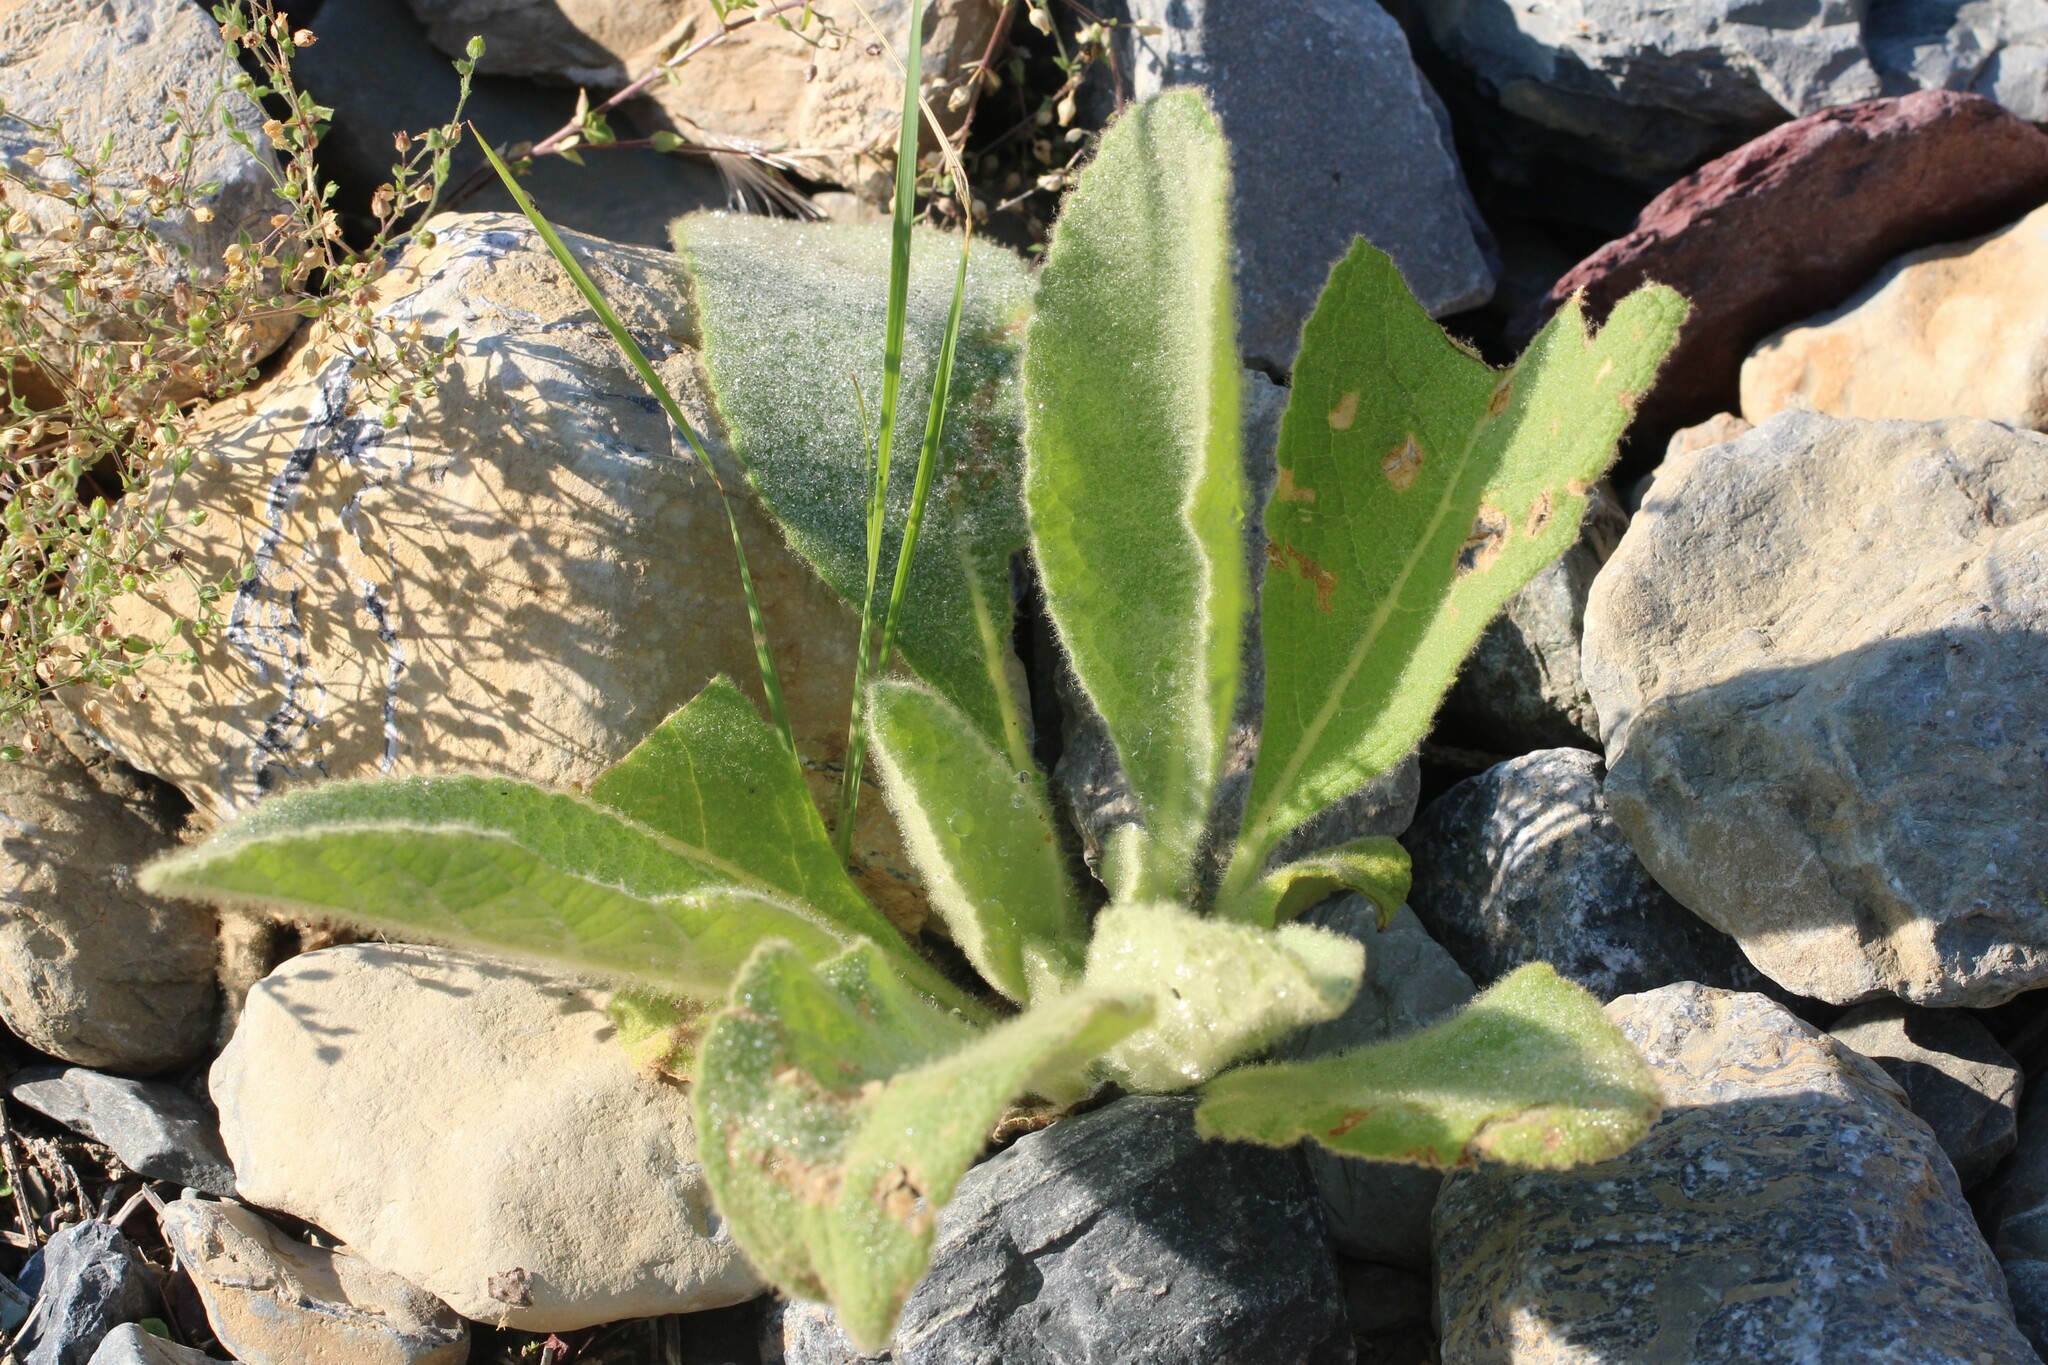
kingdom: Plantae
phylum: Tracheophyta
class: Magnoliopsida
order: Lamiales
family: Scrophulariaceae
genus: Verbascum
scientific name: Verbascum thapsus
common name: Common mullein
